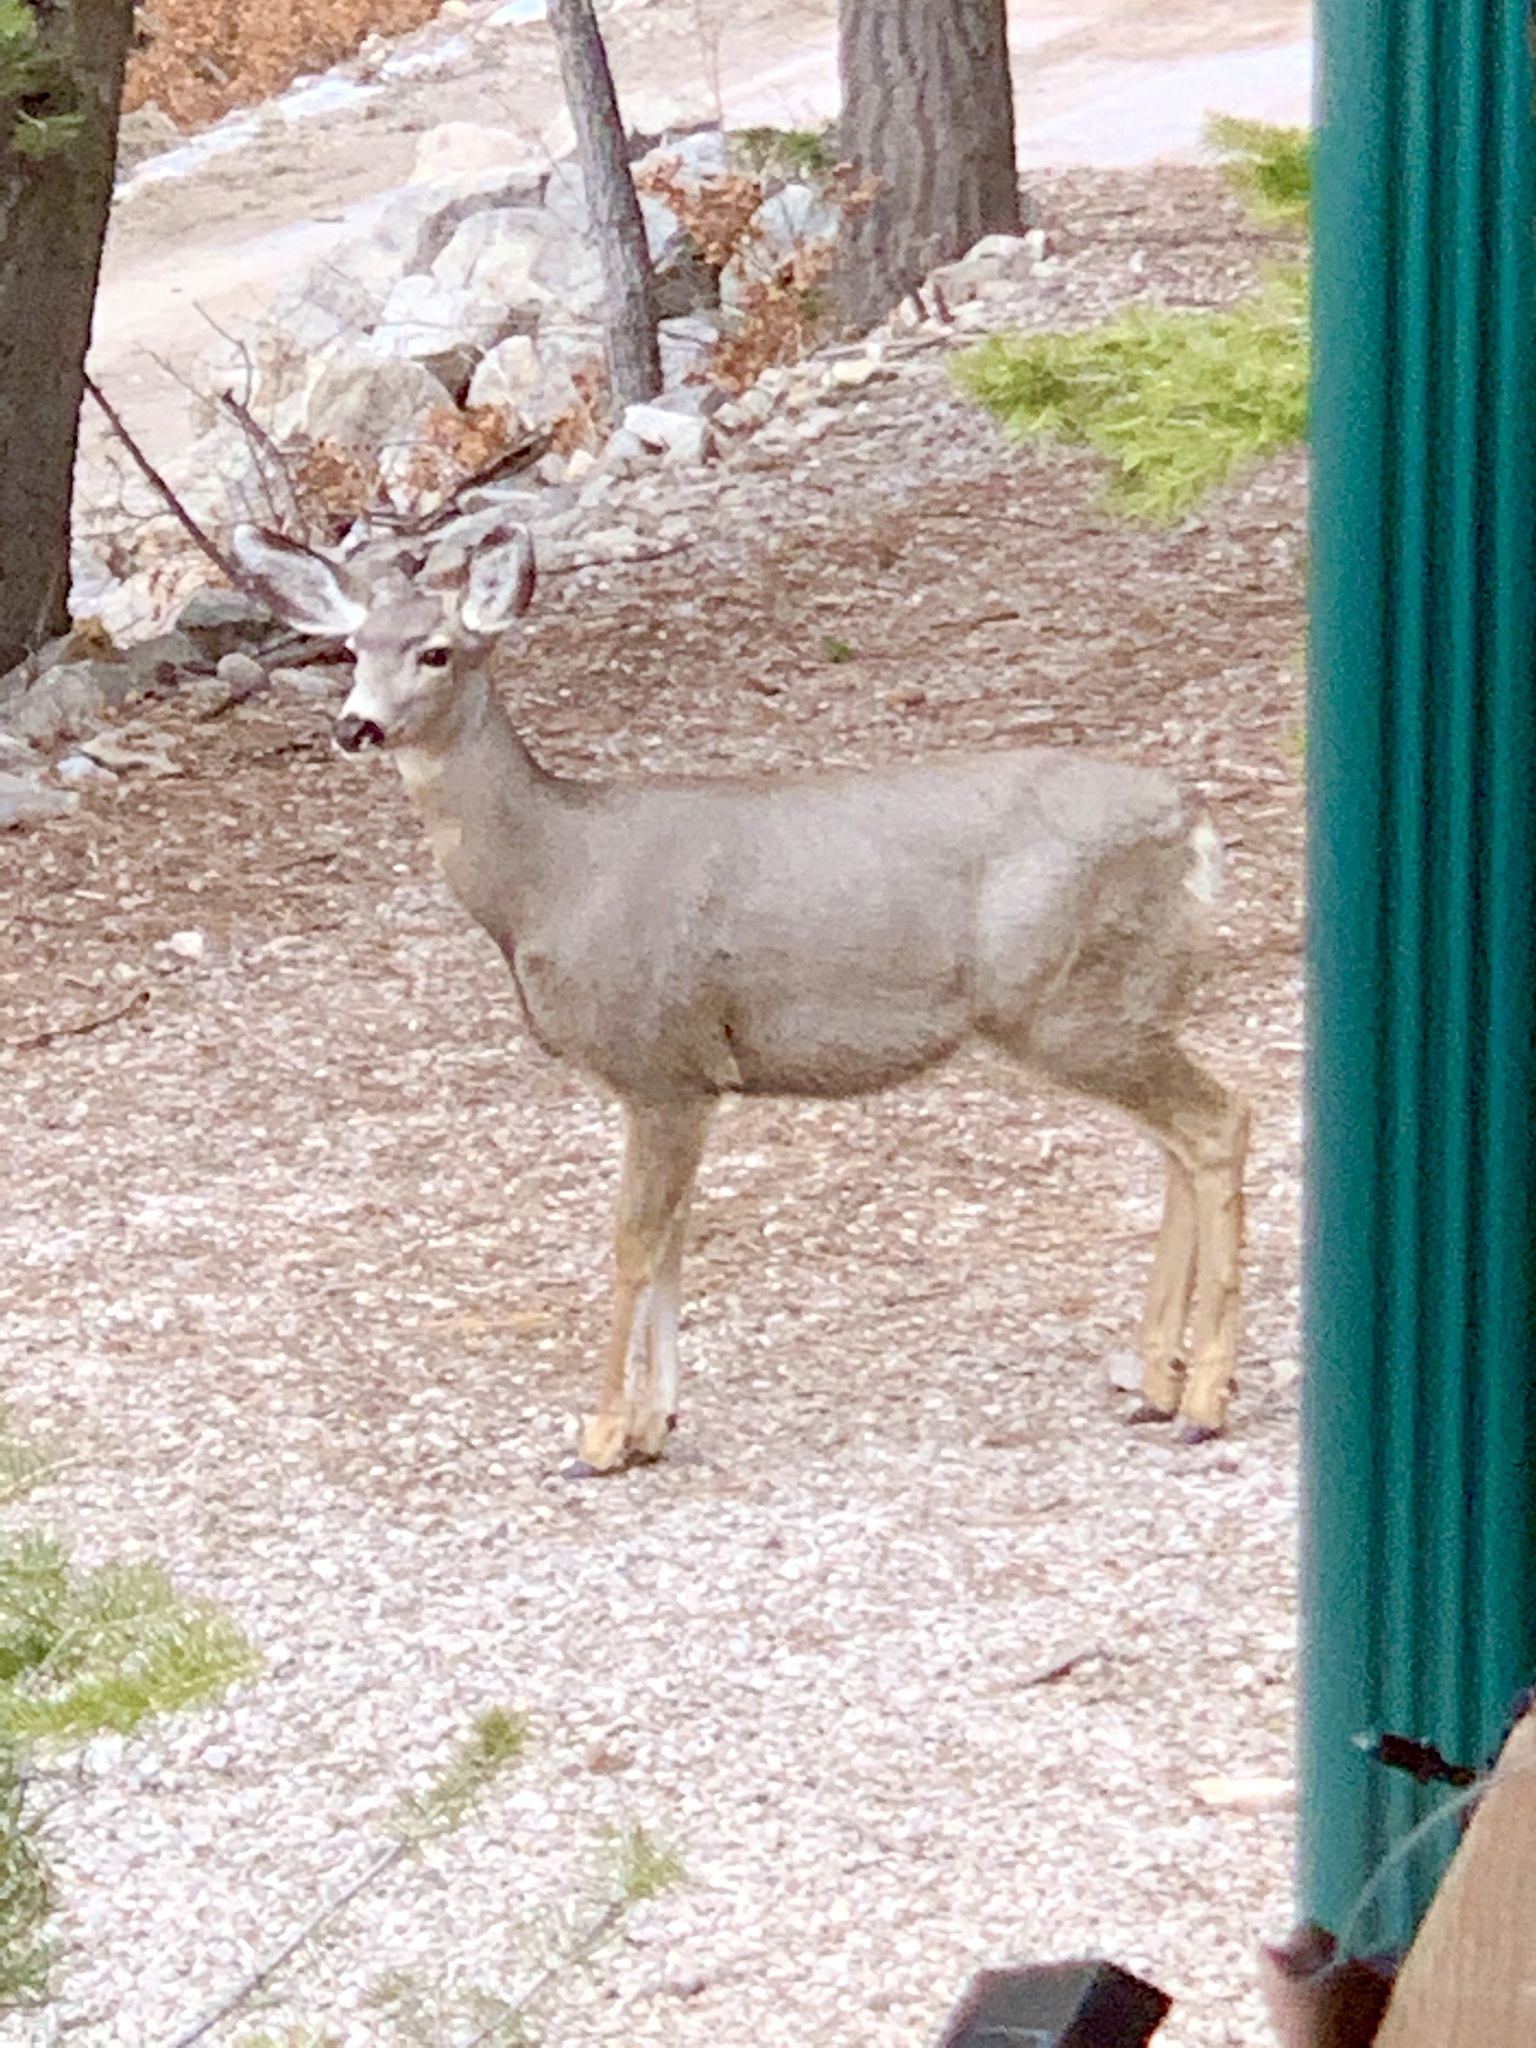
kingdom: Animalia
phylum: Chordata
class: Mammalia
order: Artiodactyla
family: Cervidae
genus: Odocoileus
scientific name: Odocoileus hemionus
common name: Mule deer
